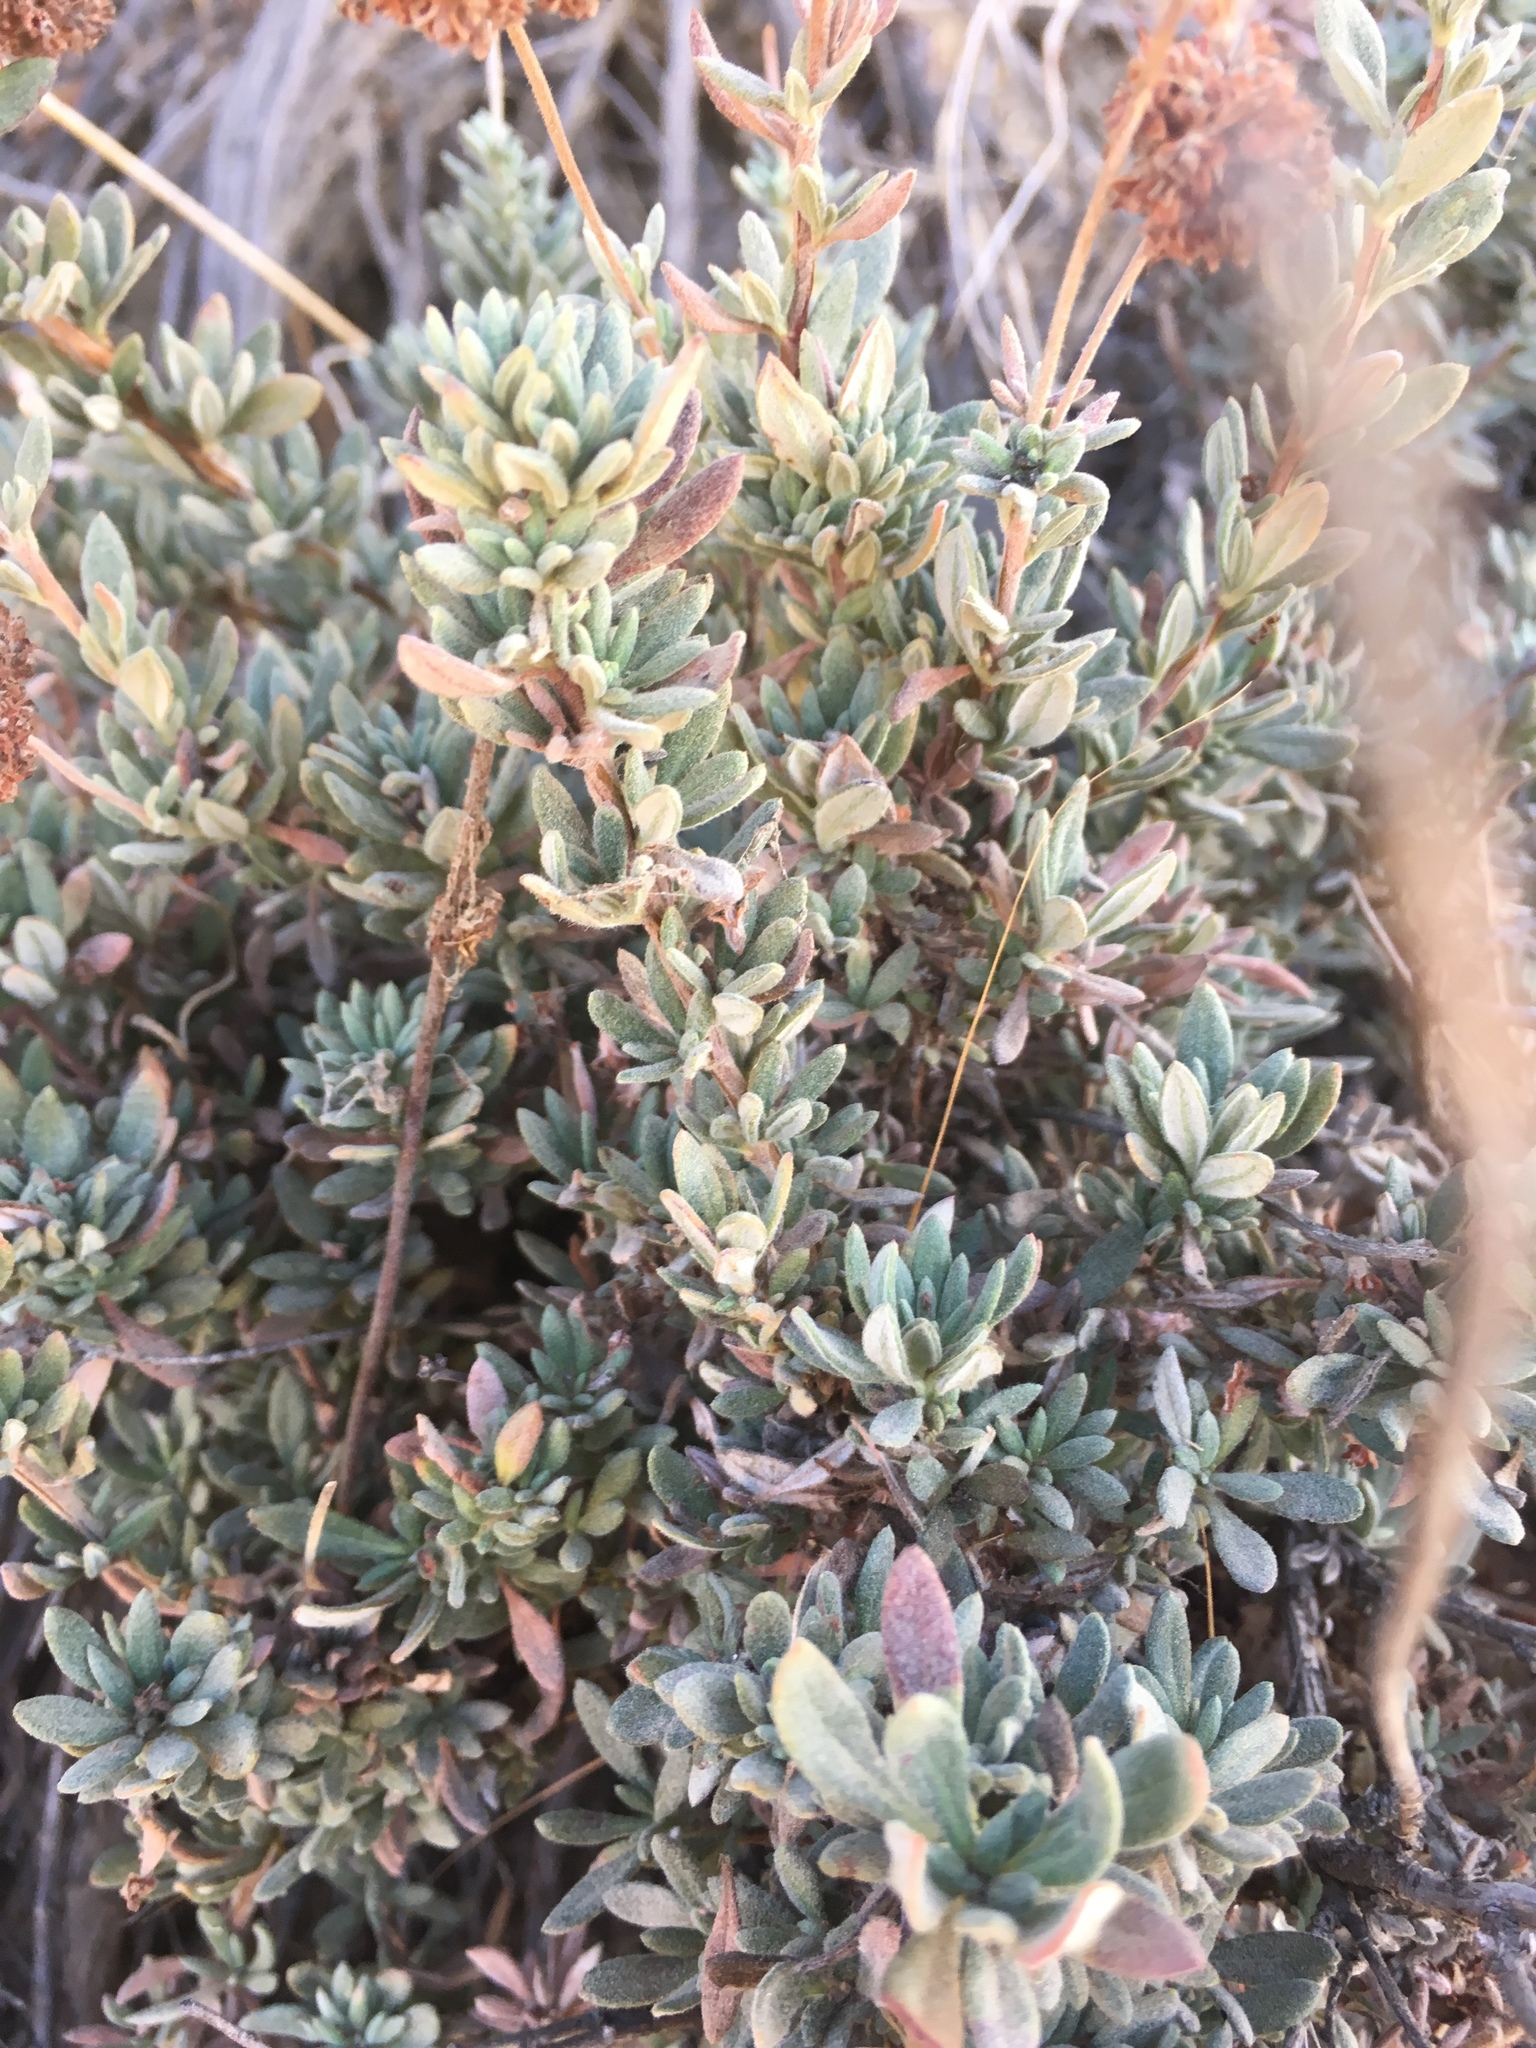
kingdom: Plantae
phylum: Tracheophyta
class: Magnoliopsida
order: Caryophyllales
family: Polygonaceae
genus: Eriogonum
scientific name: Eriogonum fasciculatum
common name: California wild buckwheat
